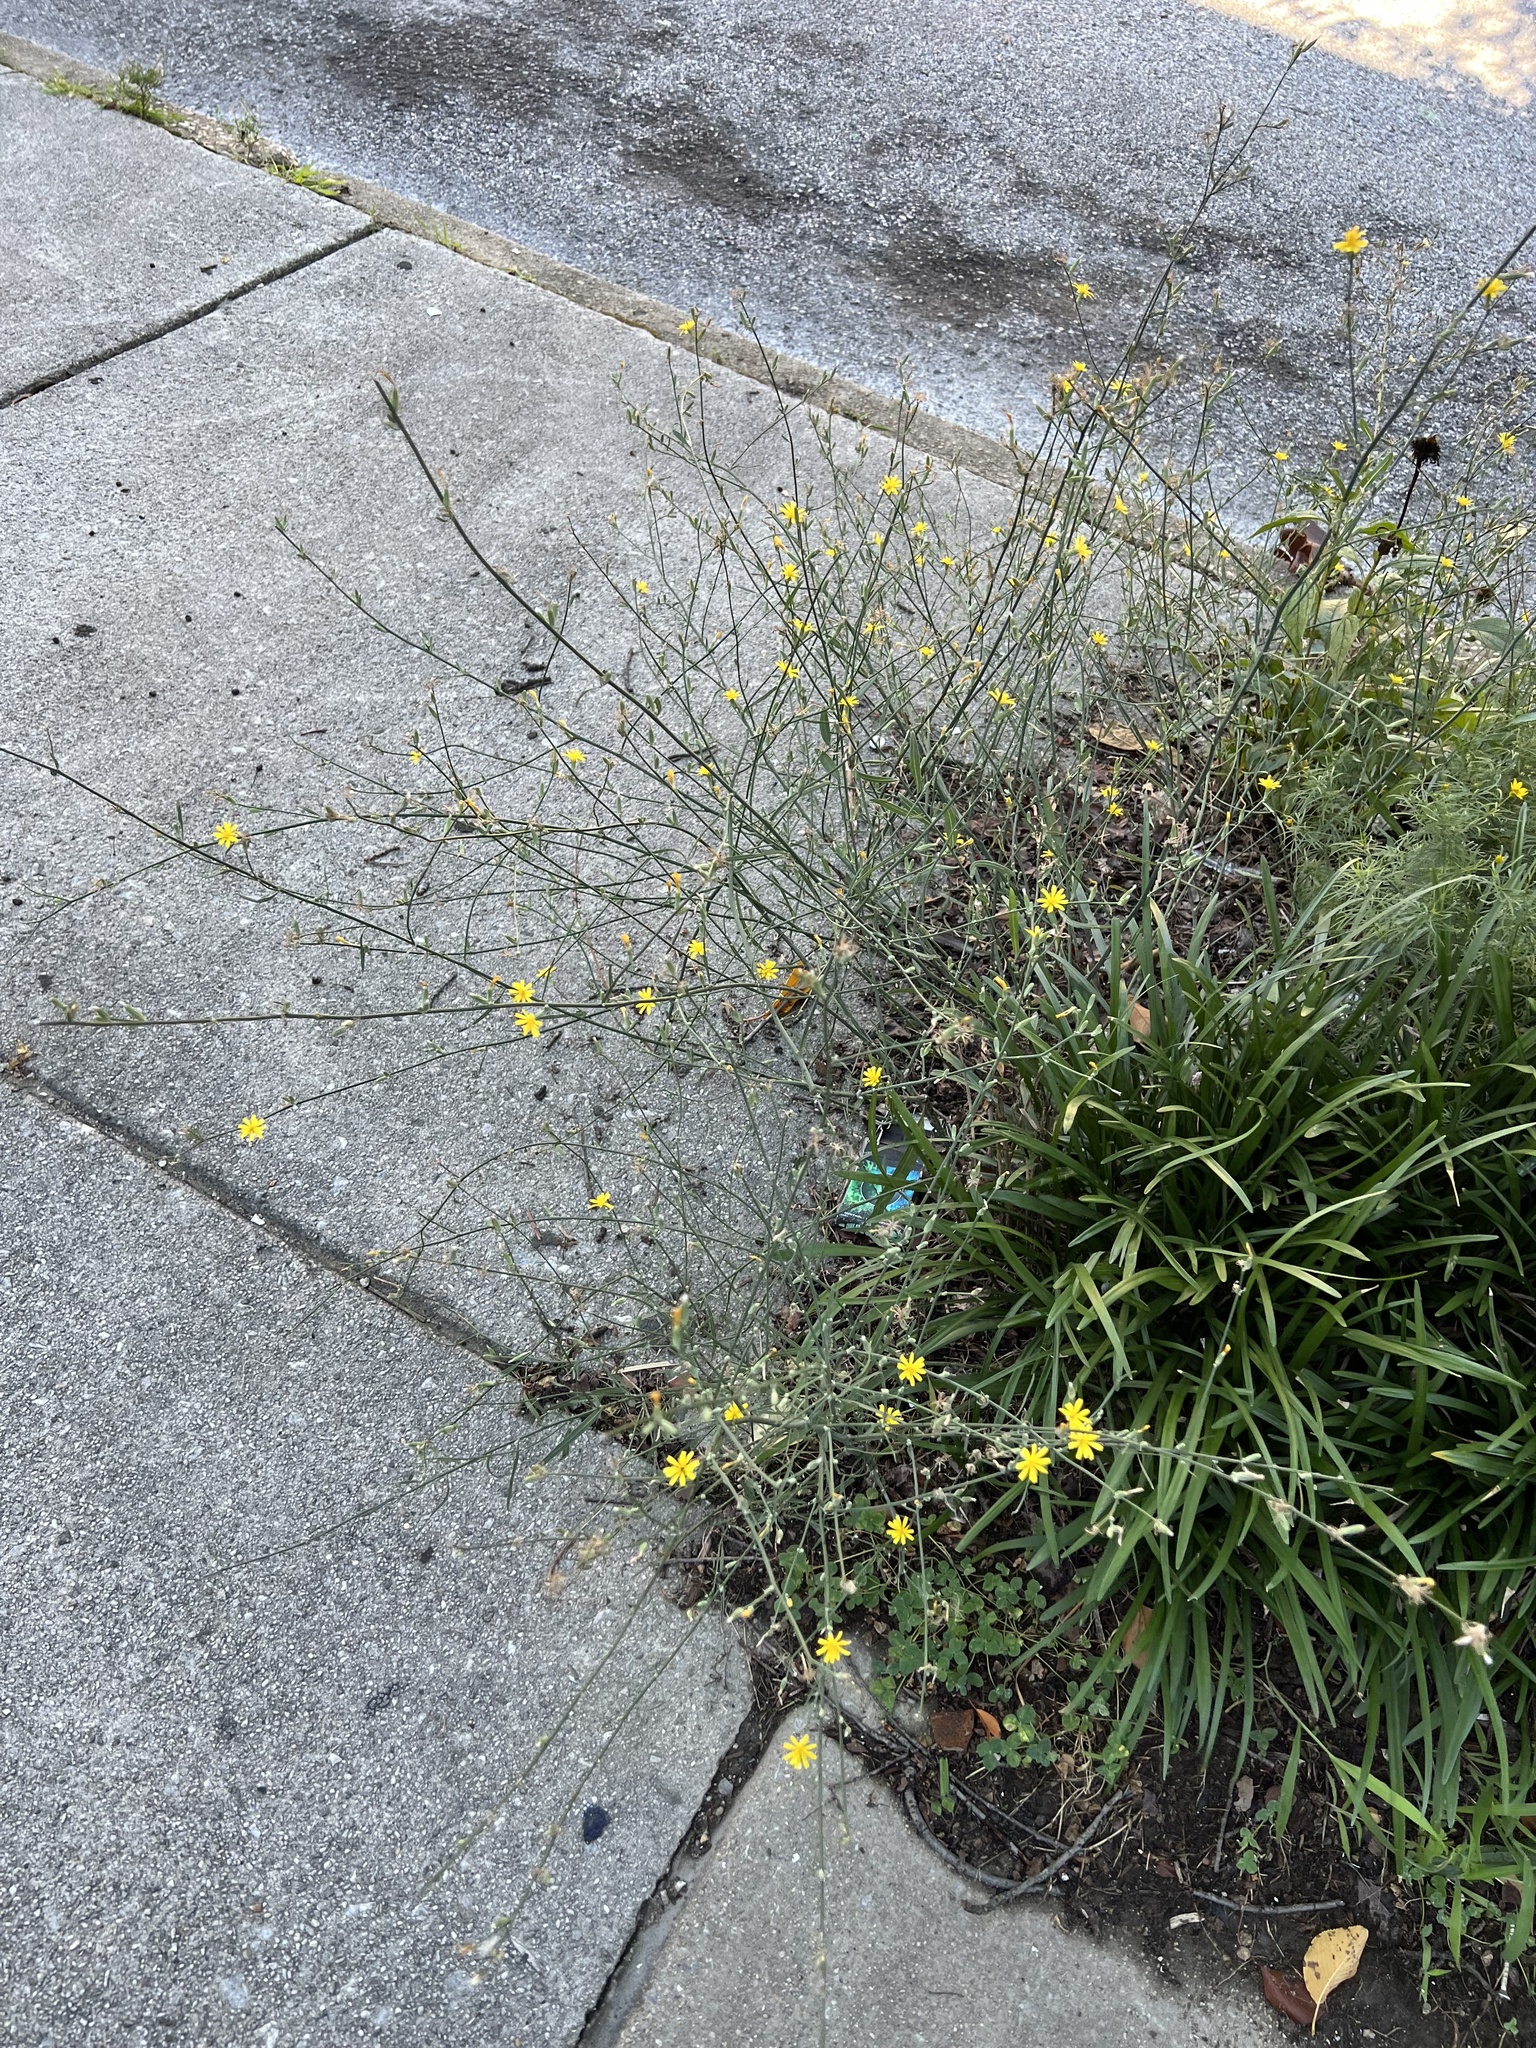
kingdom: Plantae
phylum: Tracheophyta
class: Magnoliopsida
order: Asterales
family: Asteraceae
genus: Chondrilla
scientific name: Chondrilla juncea
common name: Skeleton weed
